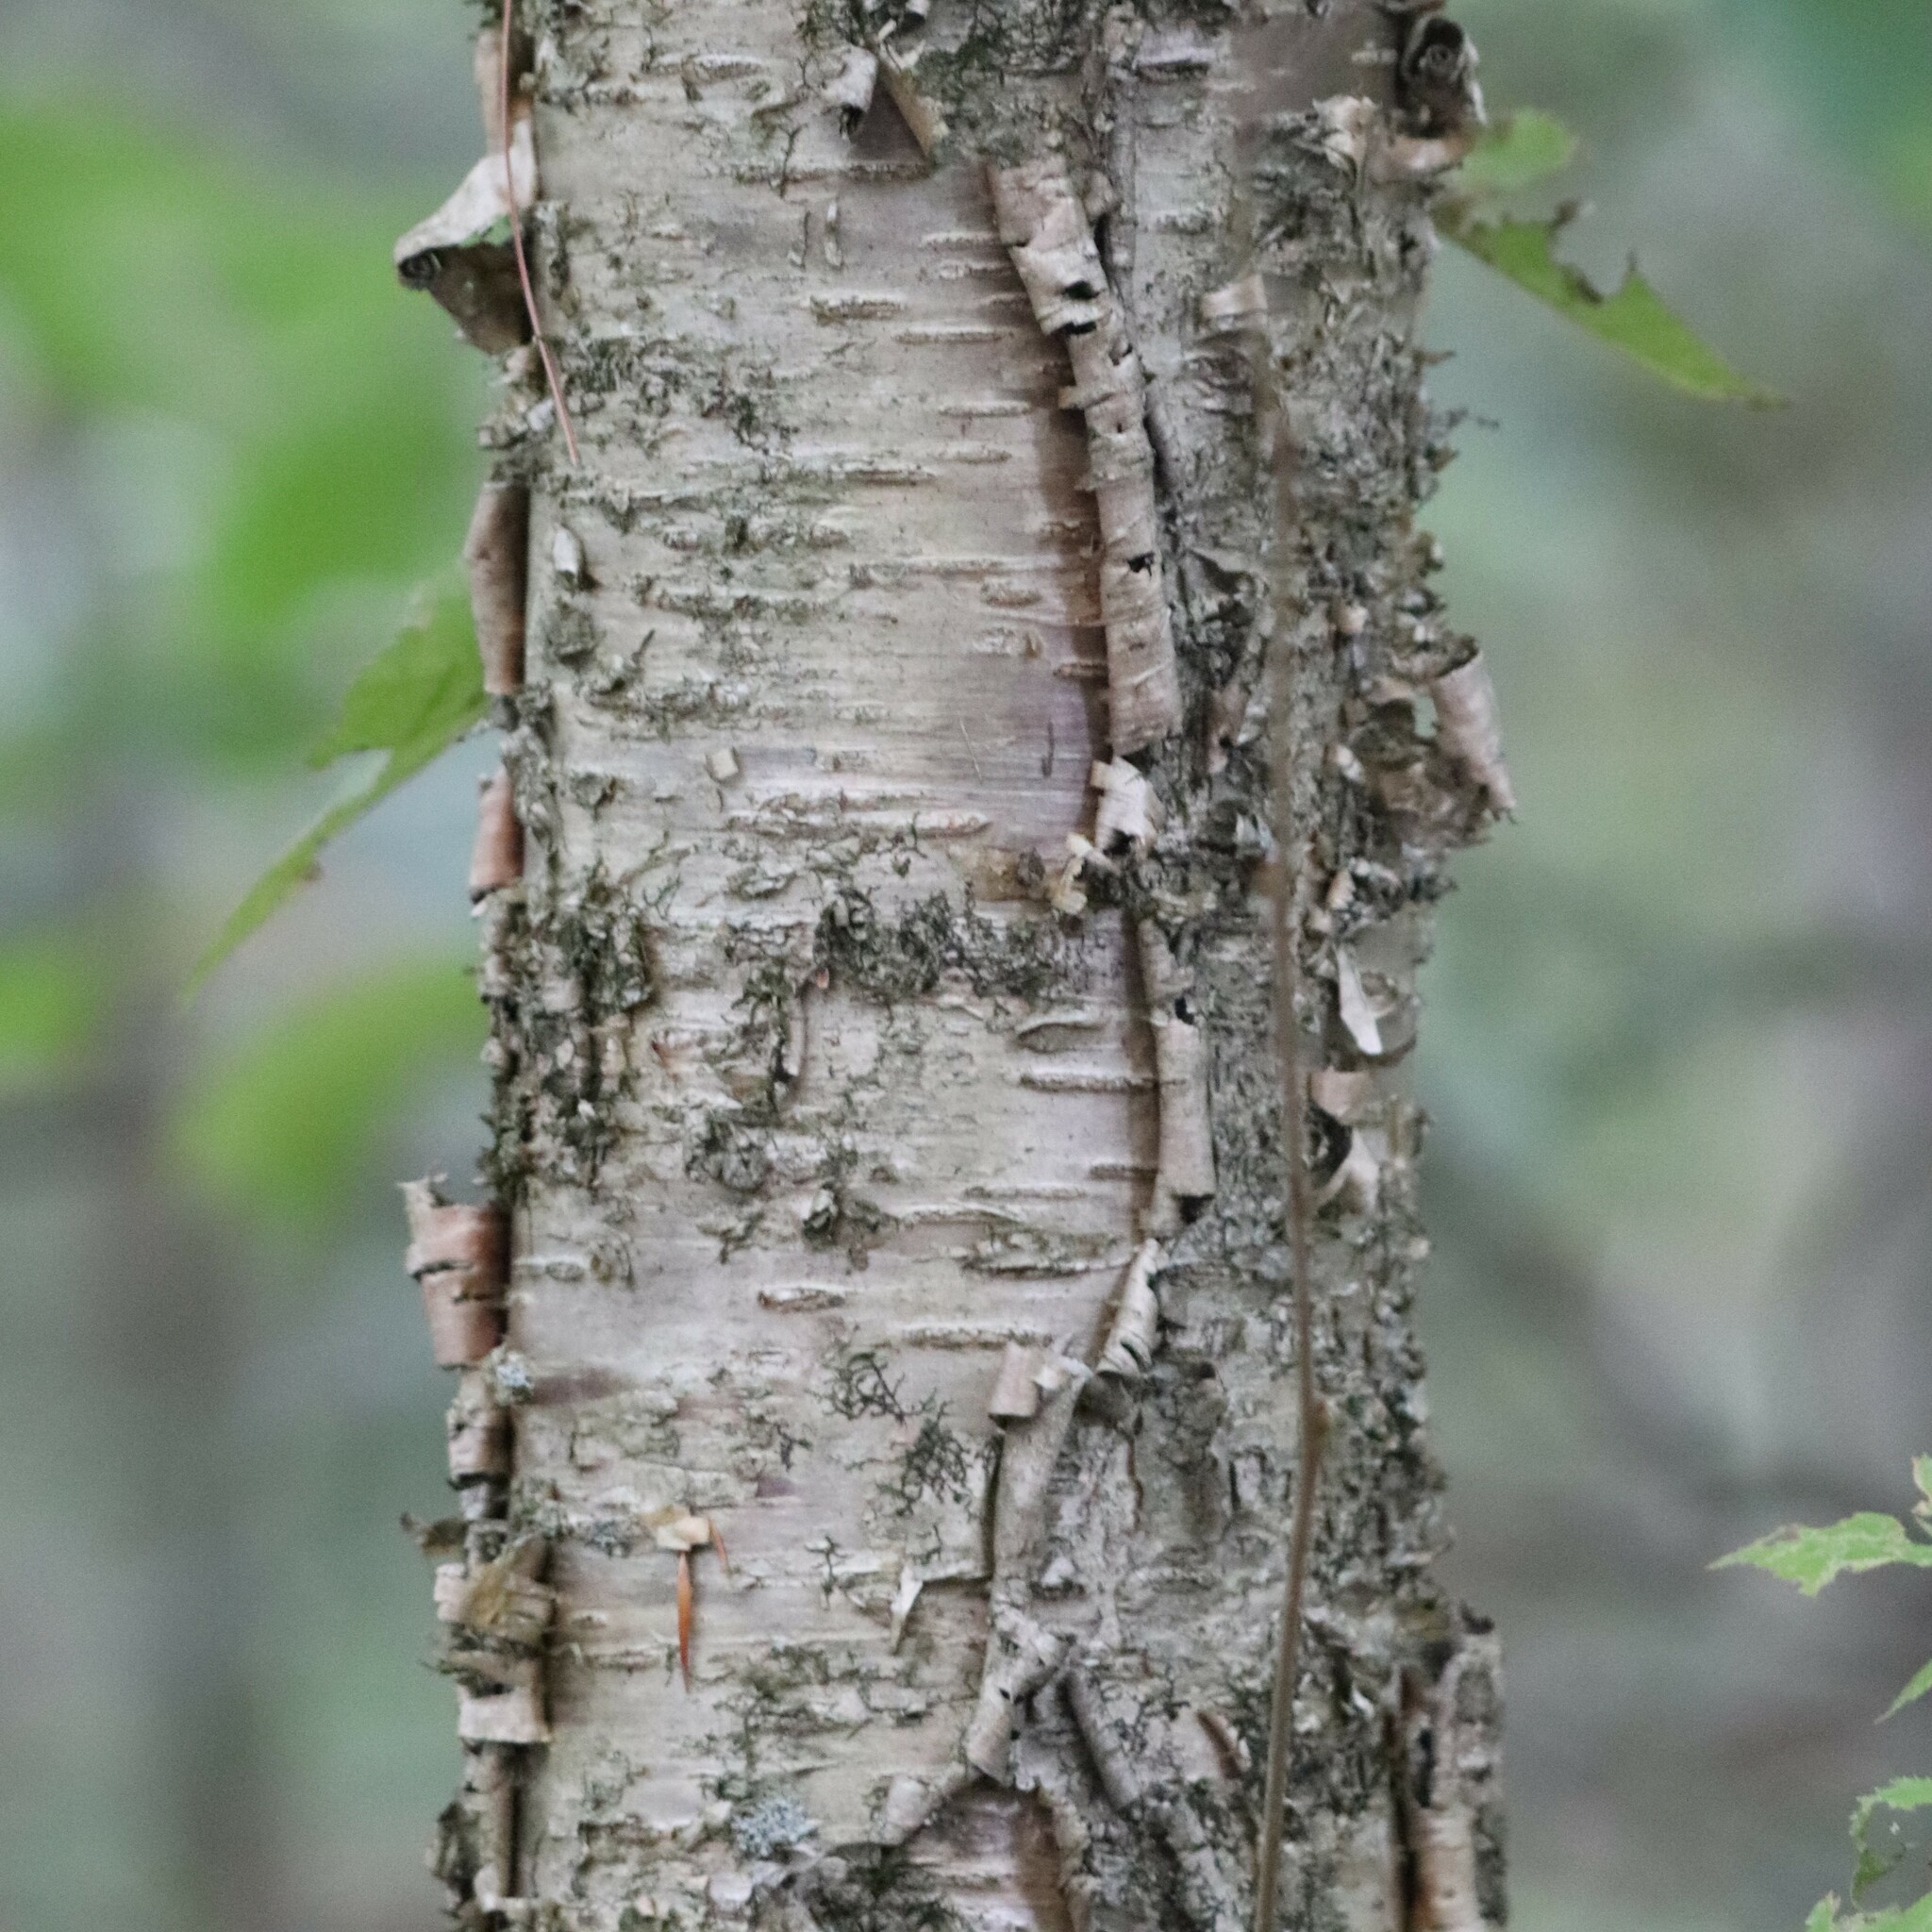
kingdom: Plantae
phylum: Tracheophyta
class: Magnoliopsida
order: Fagales
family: Betulaceae
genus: Betula
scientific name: Betula alleghaniensis
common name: Yellow birch
